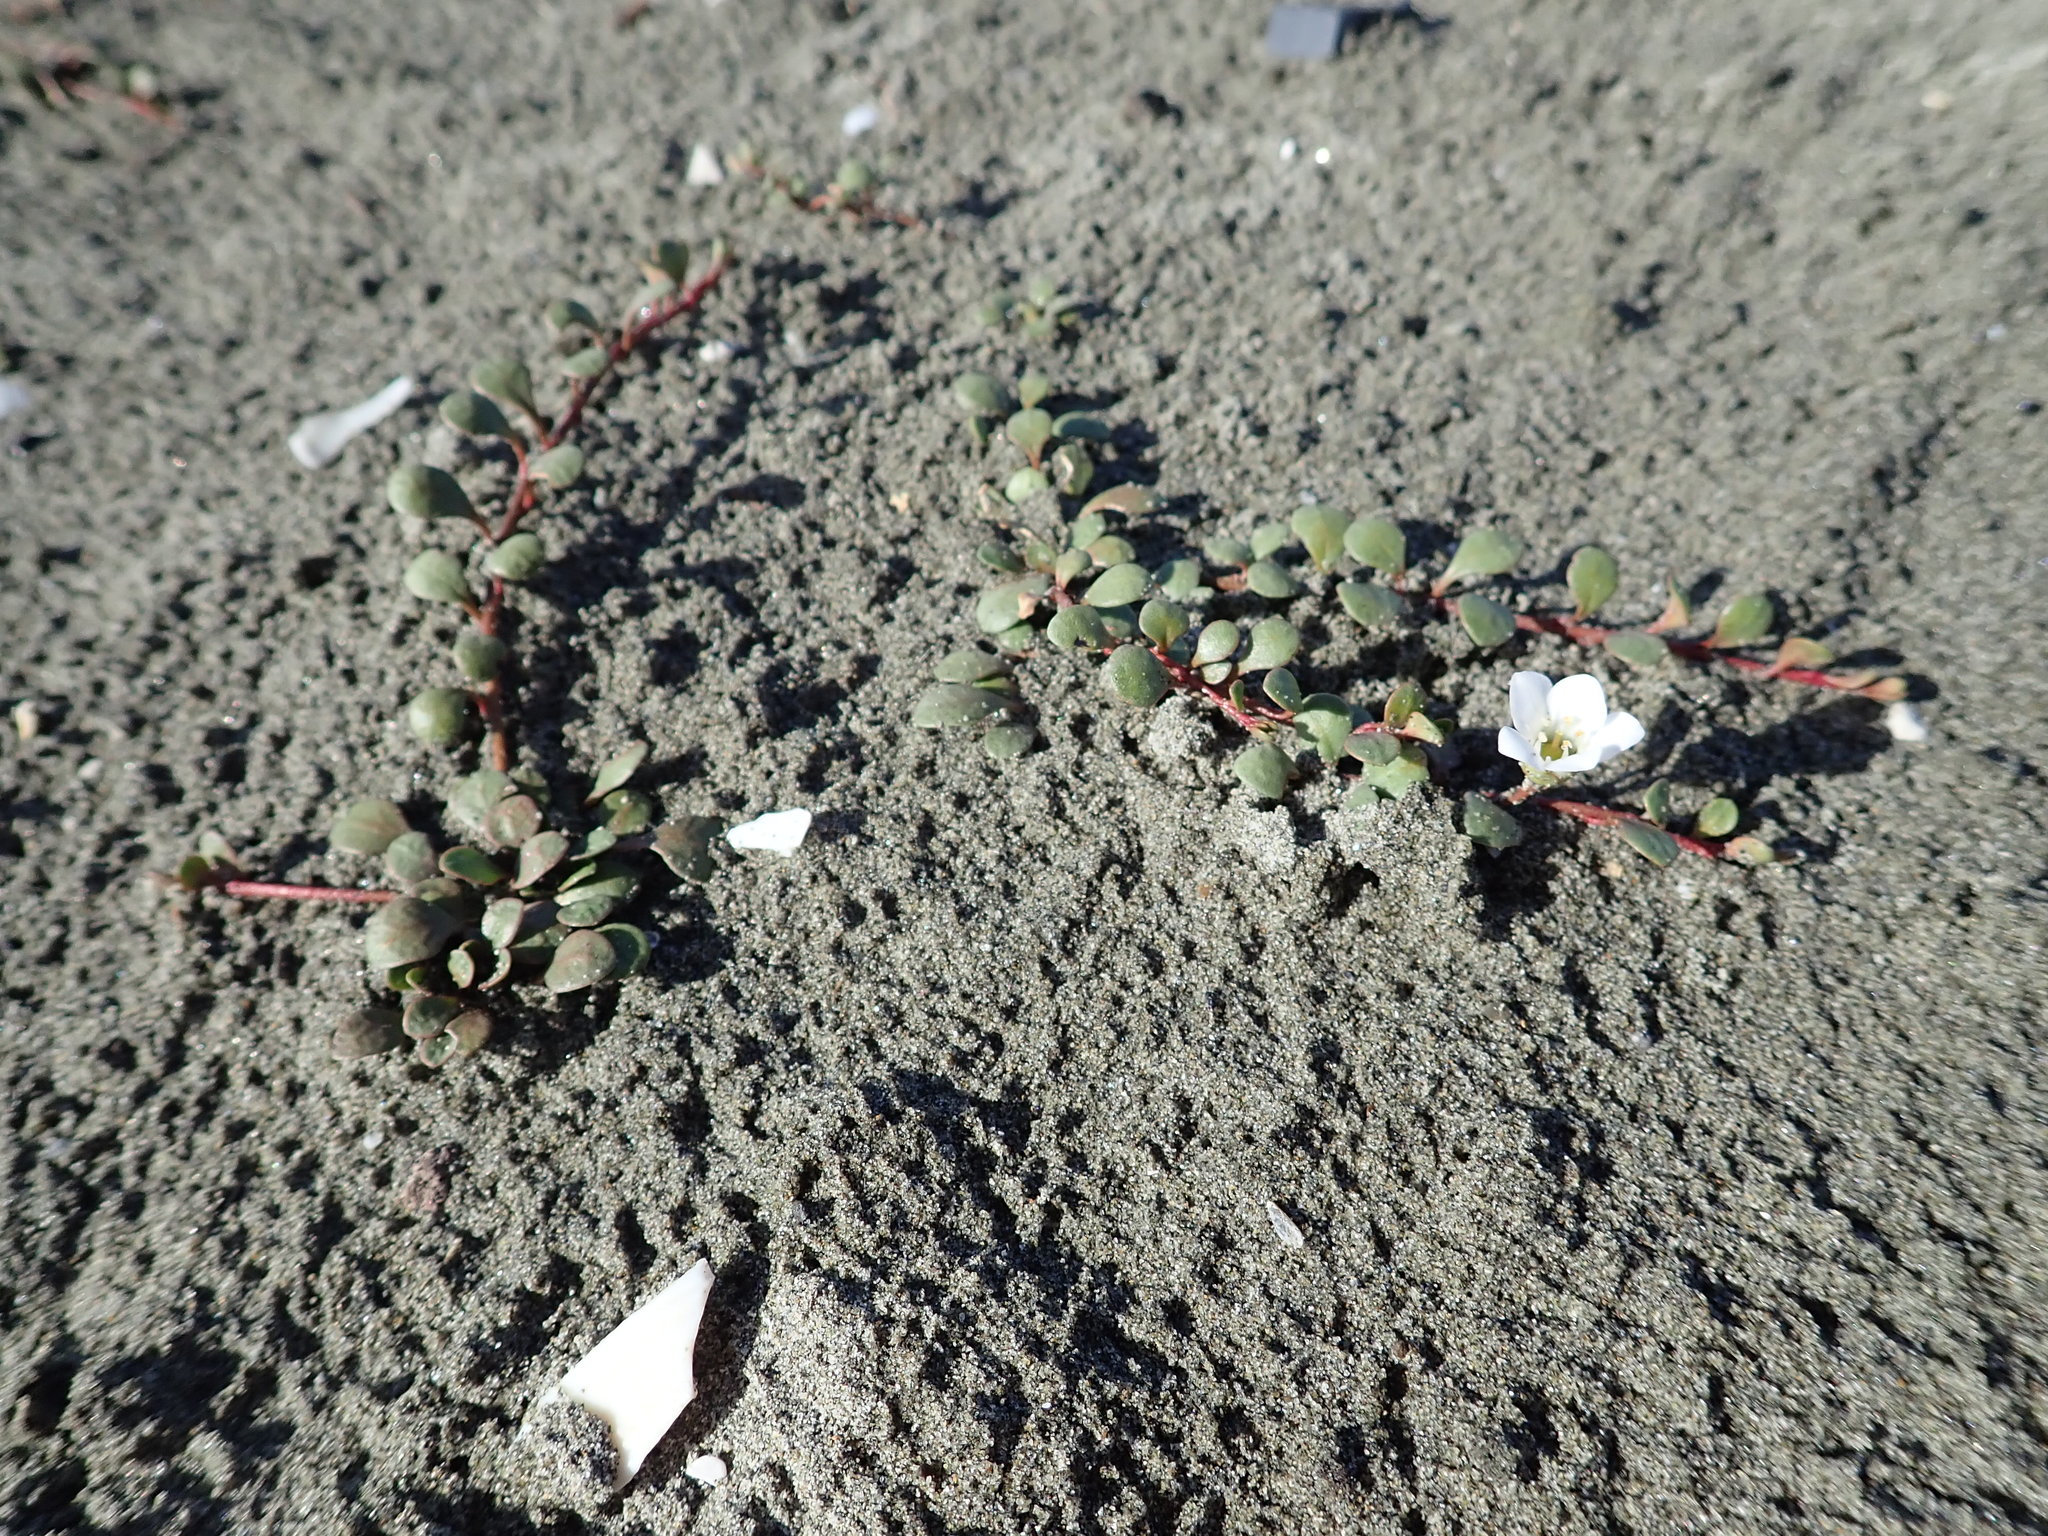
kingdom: Plantae
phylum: Tracheophyta
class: Magnoliopsida
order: Ericales
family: Primulaceae
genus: Samolus
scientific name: Samolus repens
